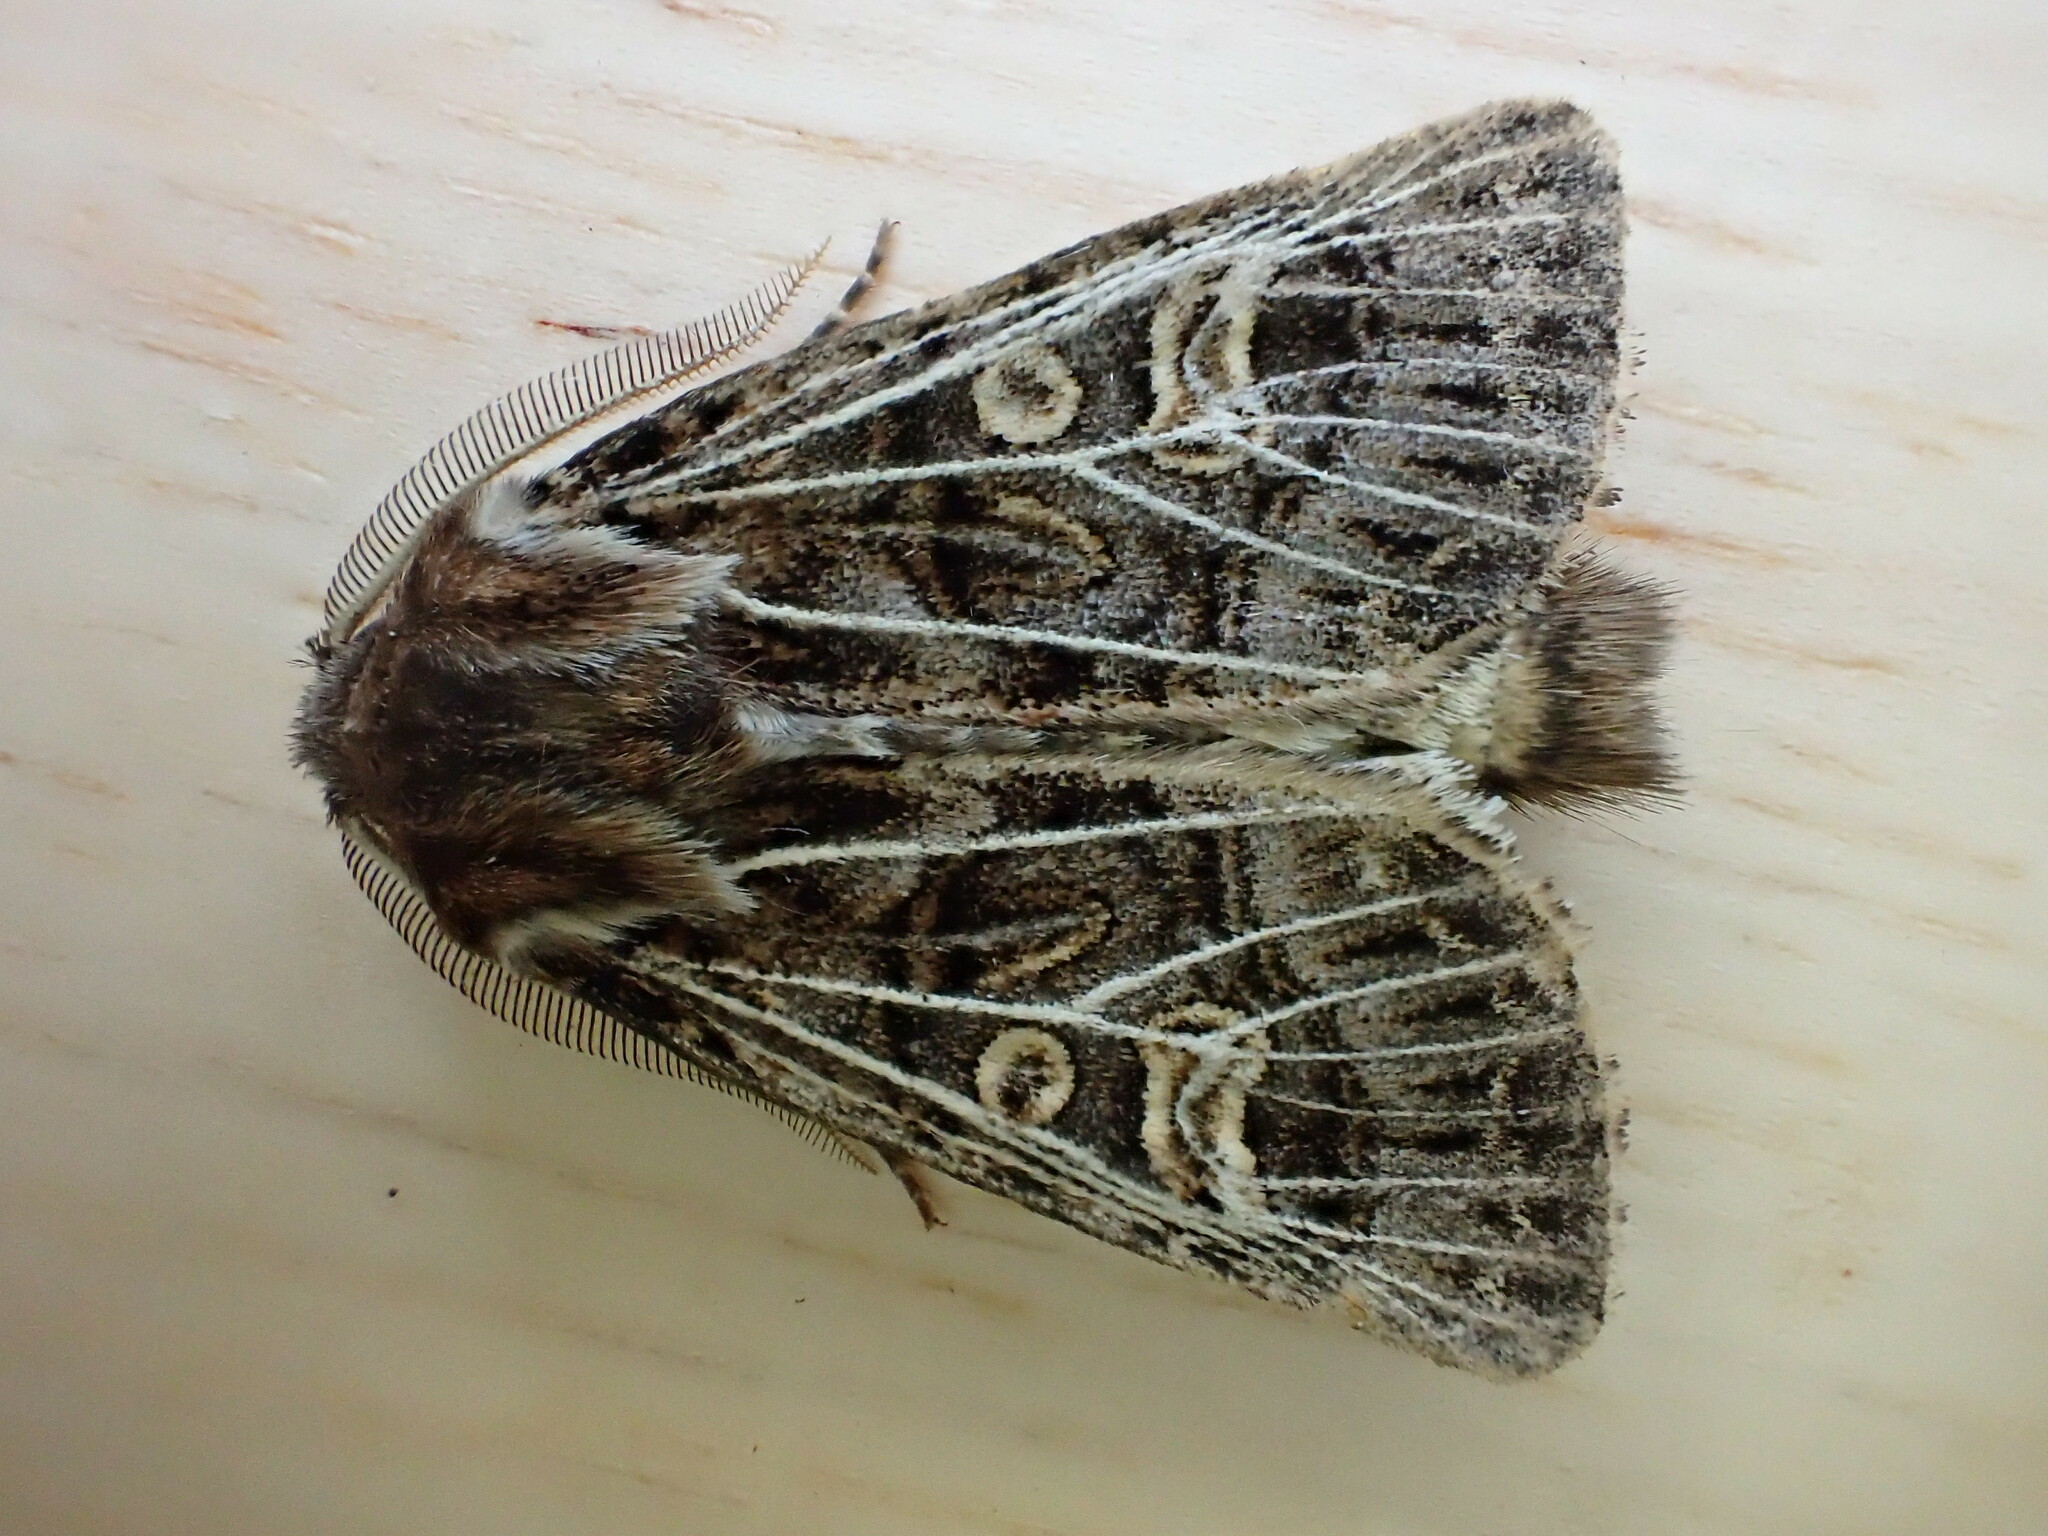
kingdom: Animalia
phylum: Arthropoda
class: Insecta
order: Lepidoptera
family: Noctuidae
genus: Tholera
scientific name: Tholera decimalis
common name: Feathered gothic
